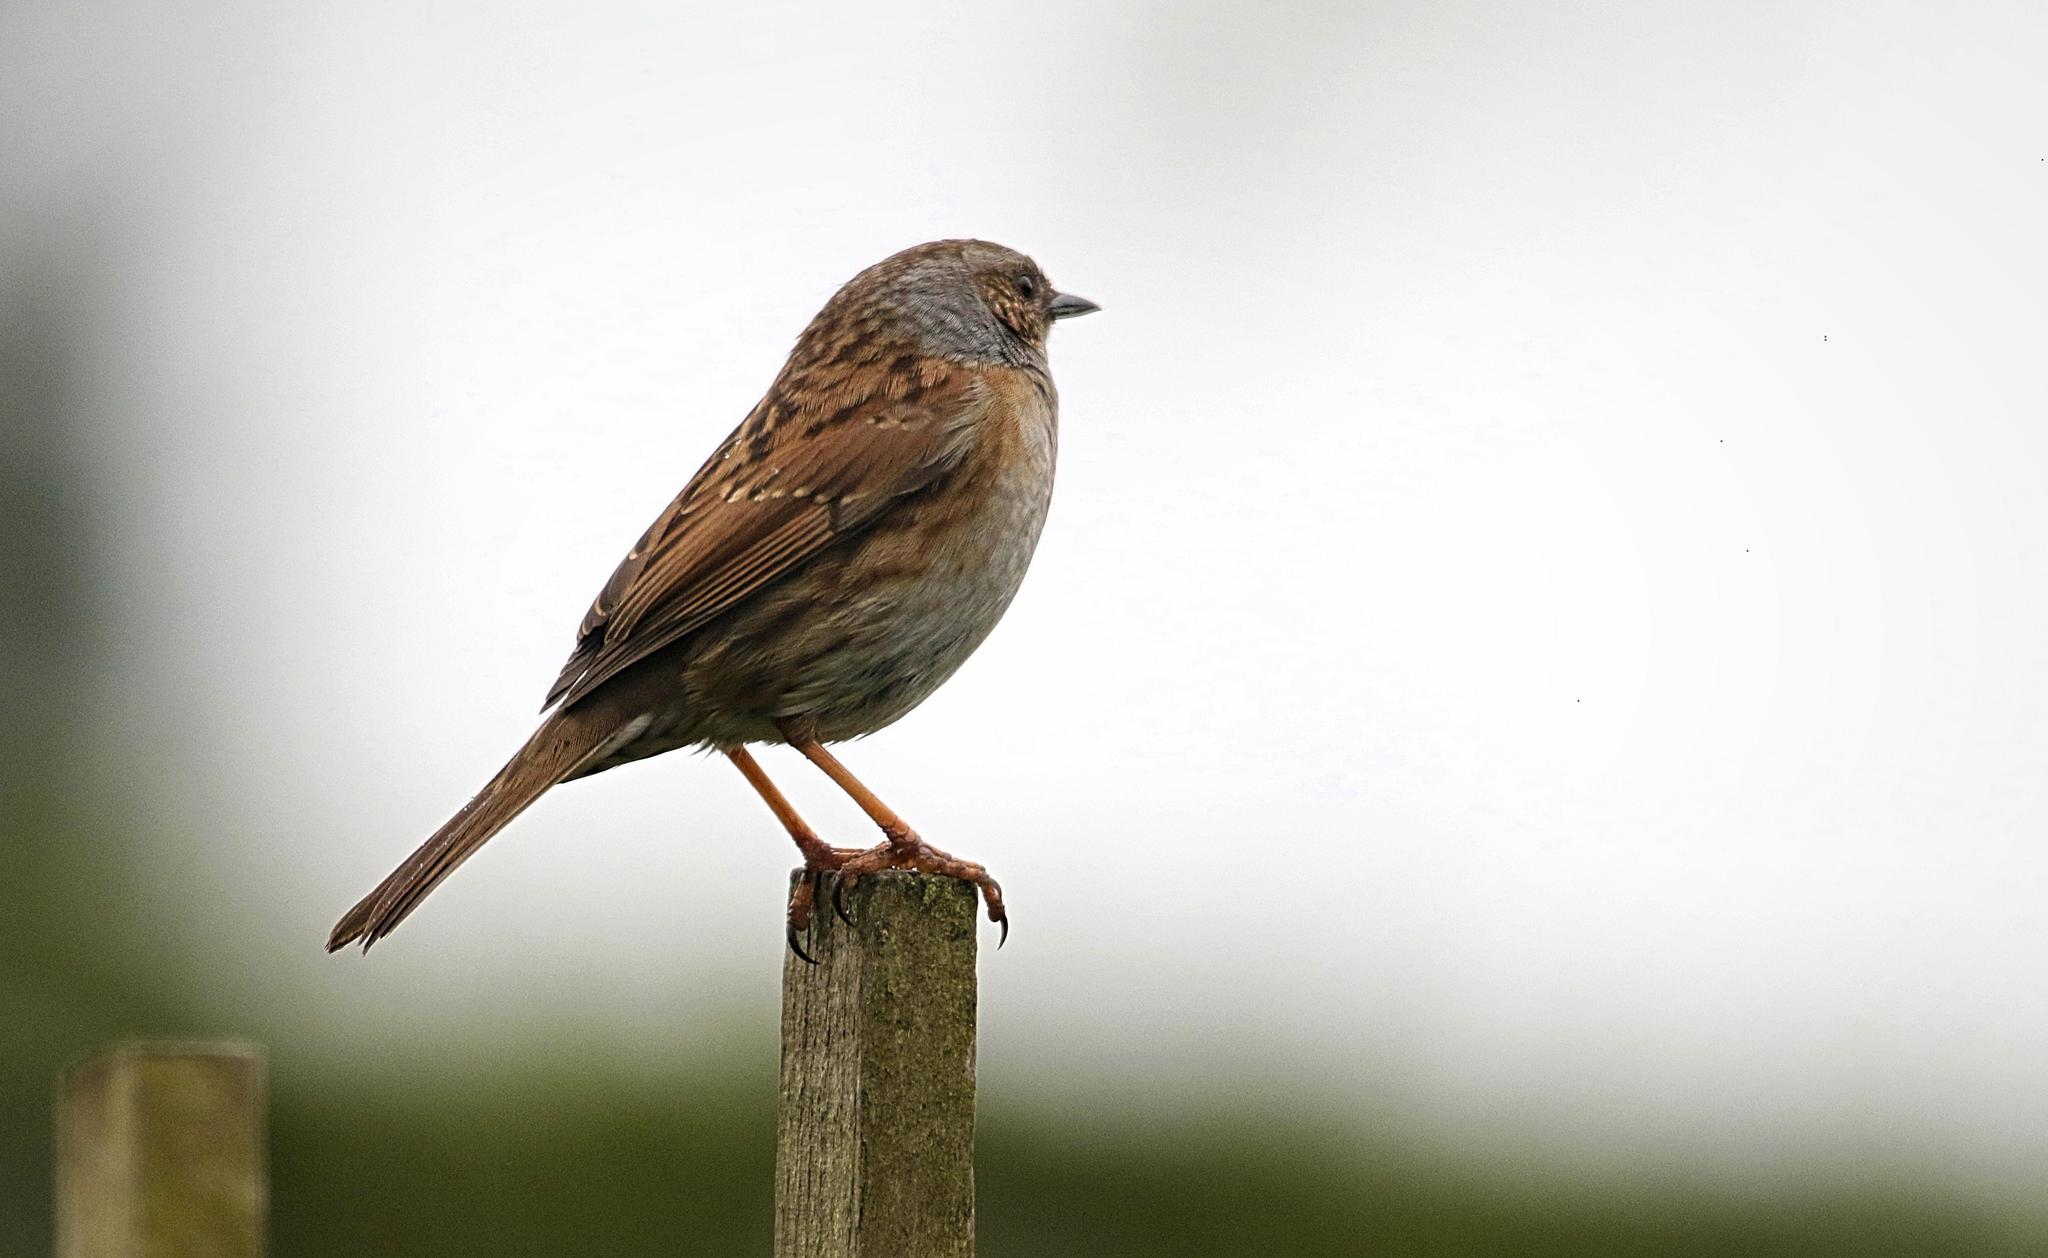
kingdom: Animalia
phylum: Chordata
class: Aves
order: Passeriformes
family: Prunellidae
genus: Prunella
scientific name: Prunella modularis
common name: Dunnock
